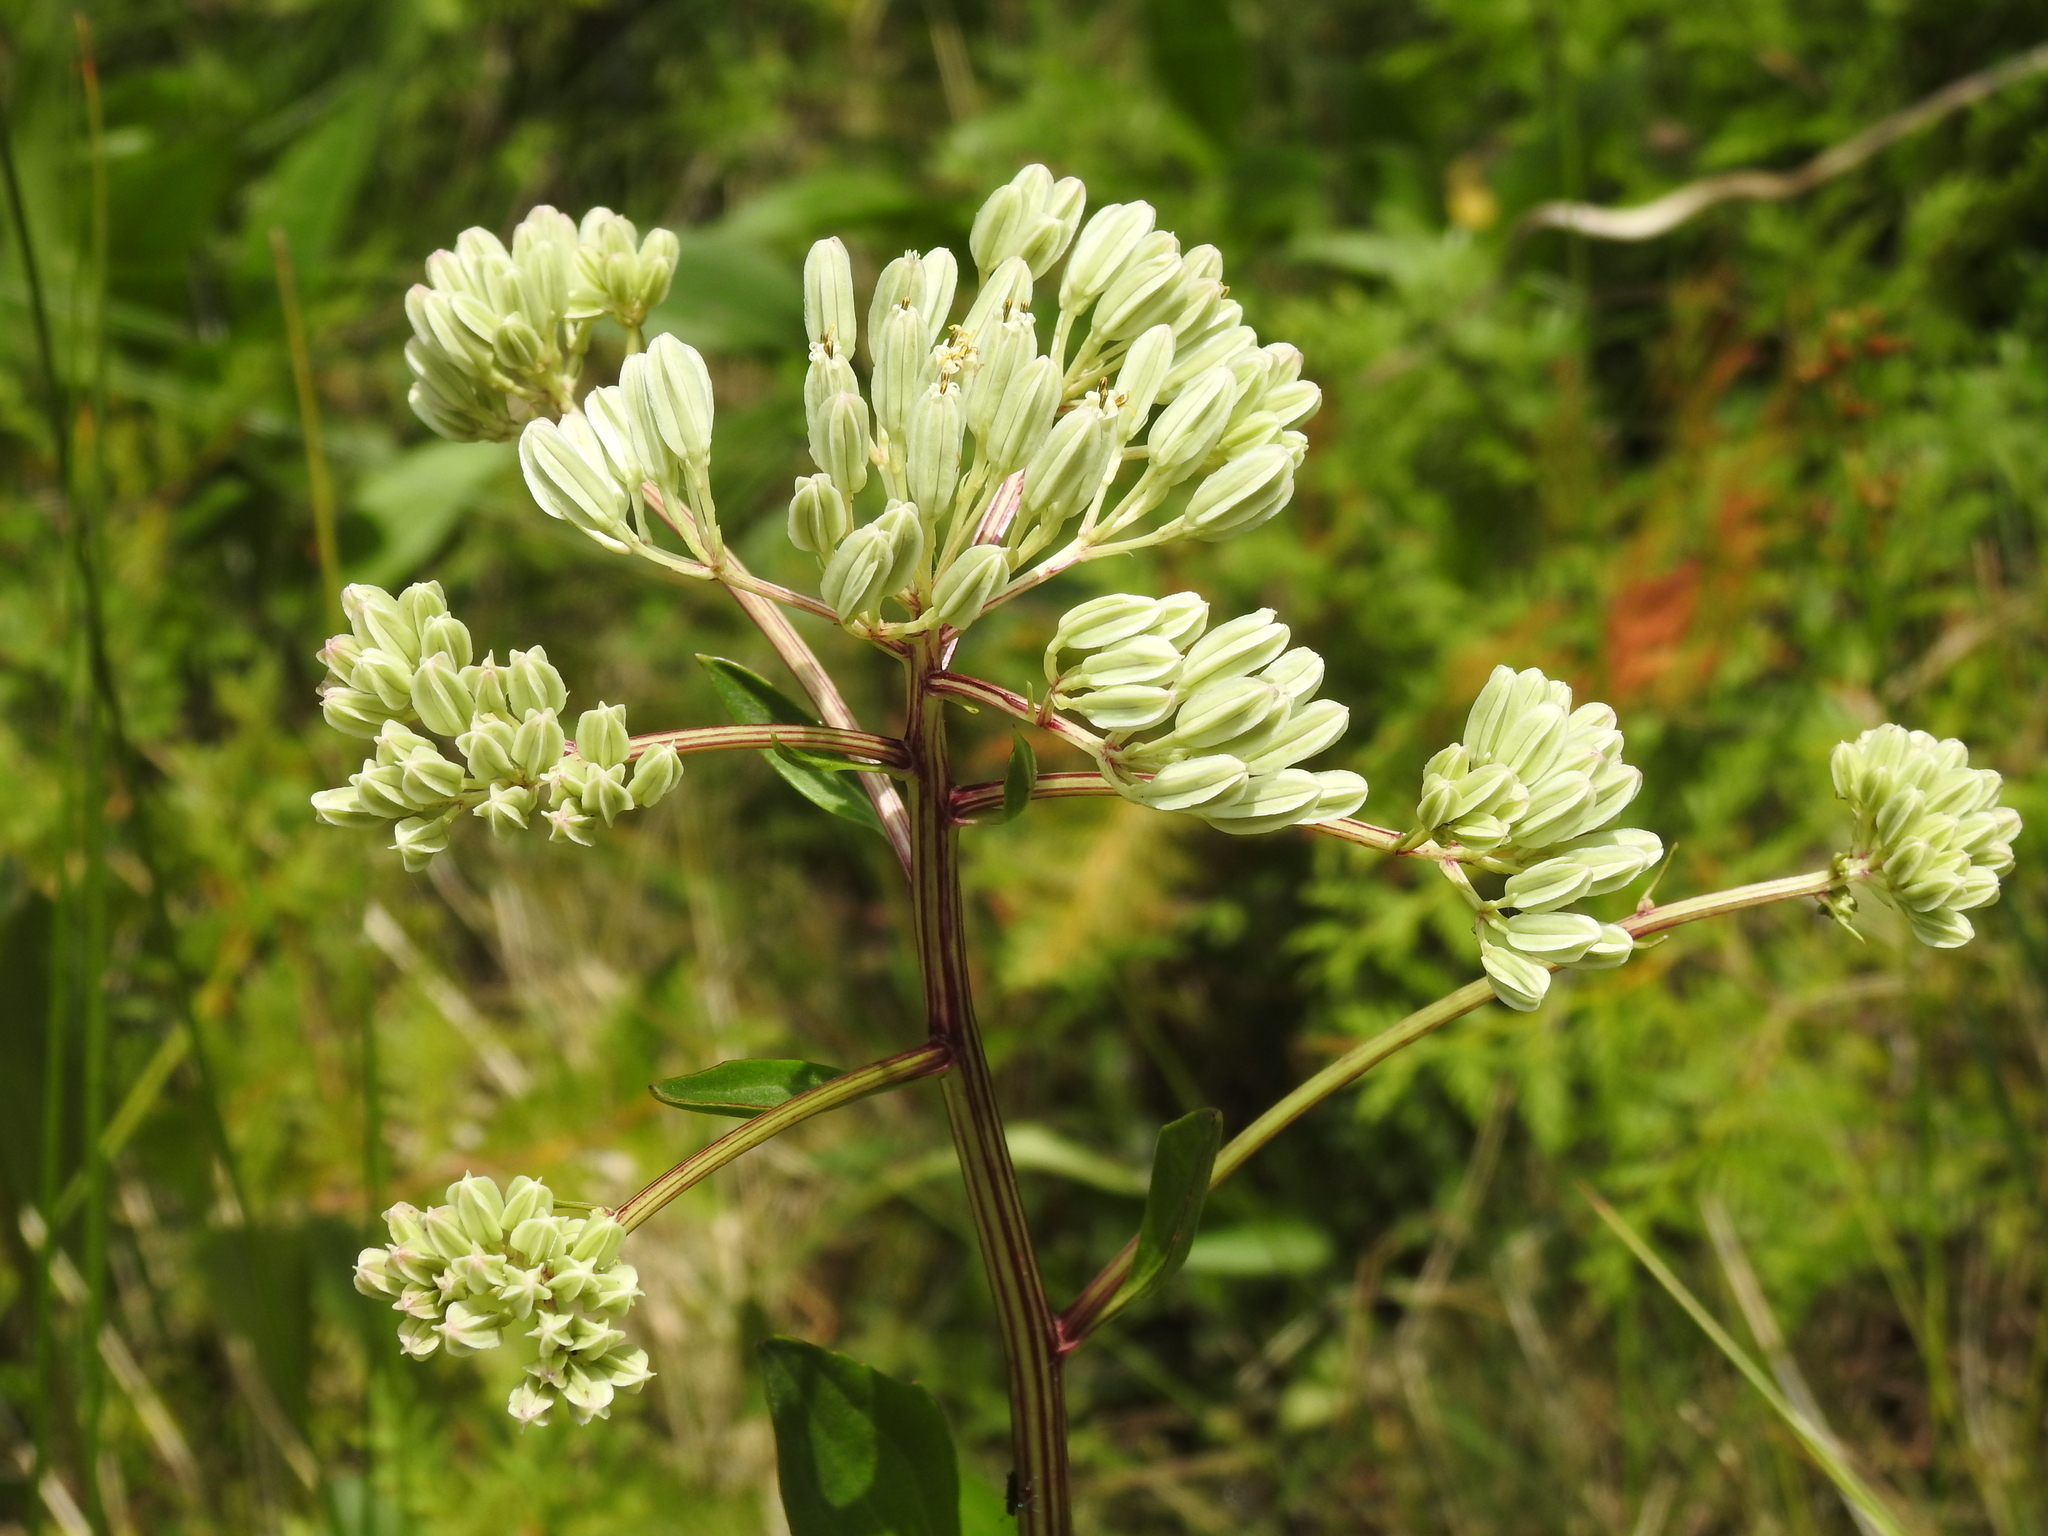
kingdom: Plantae
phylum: Tracheophyta
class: Magnoliopsida
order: Asterales
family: Asteraceae
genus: Arnoglossum
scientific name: Arnoglossum plantagineum
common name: Groove-stemmed indian-plantain
